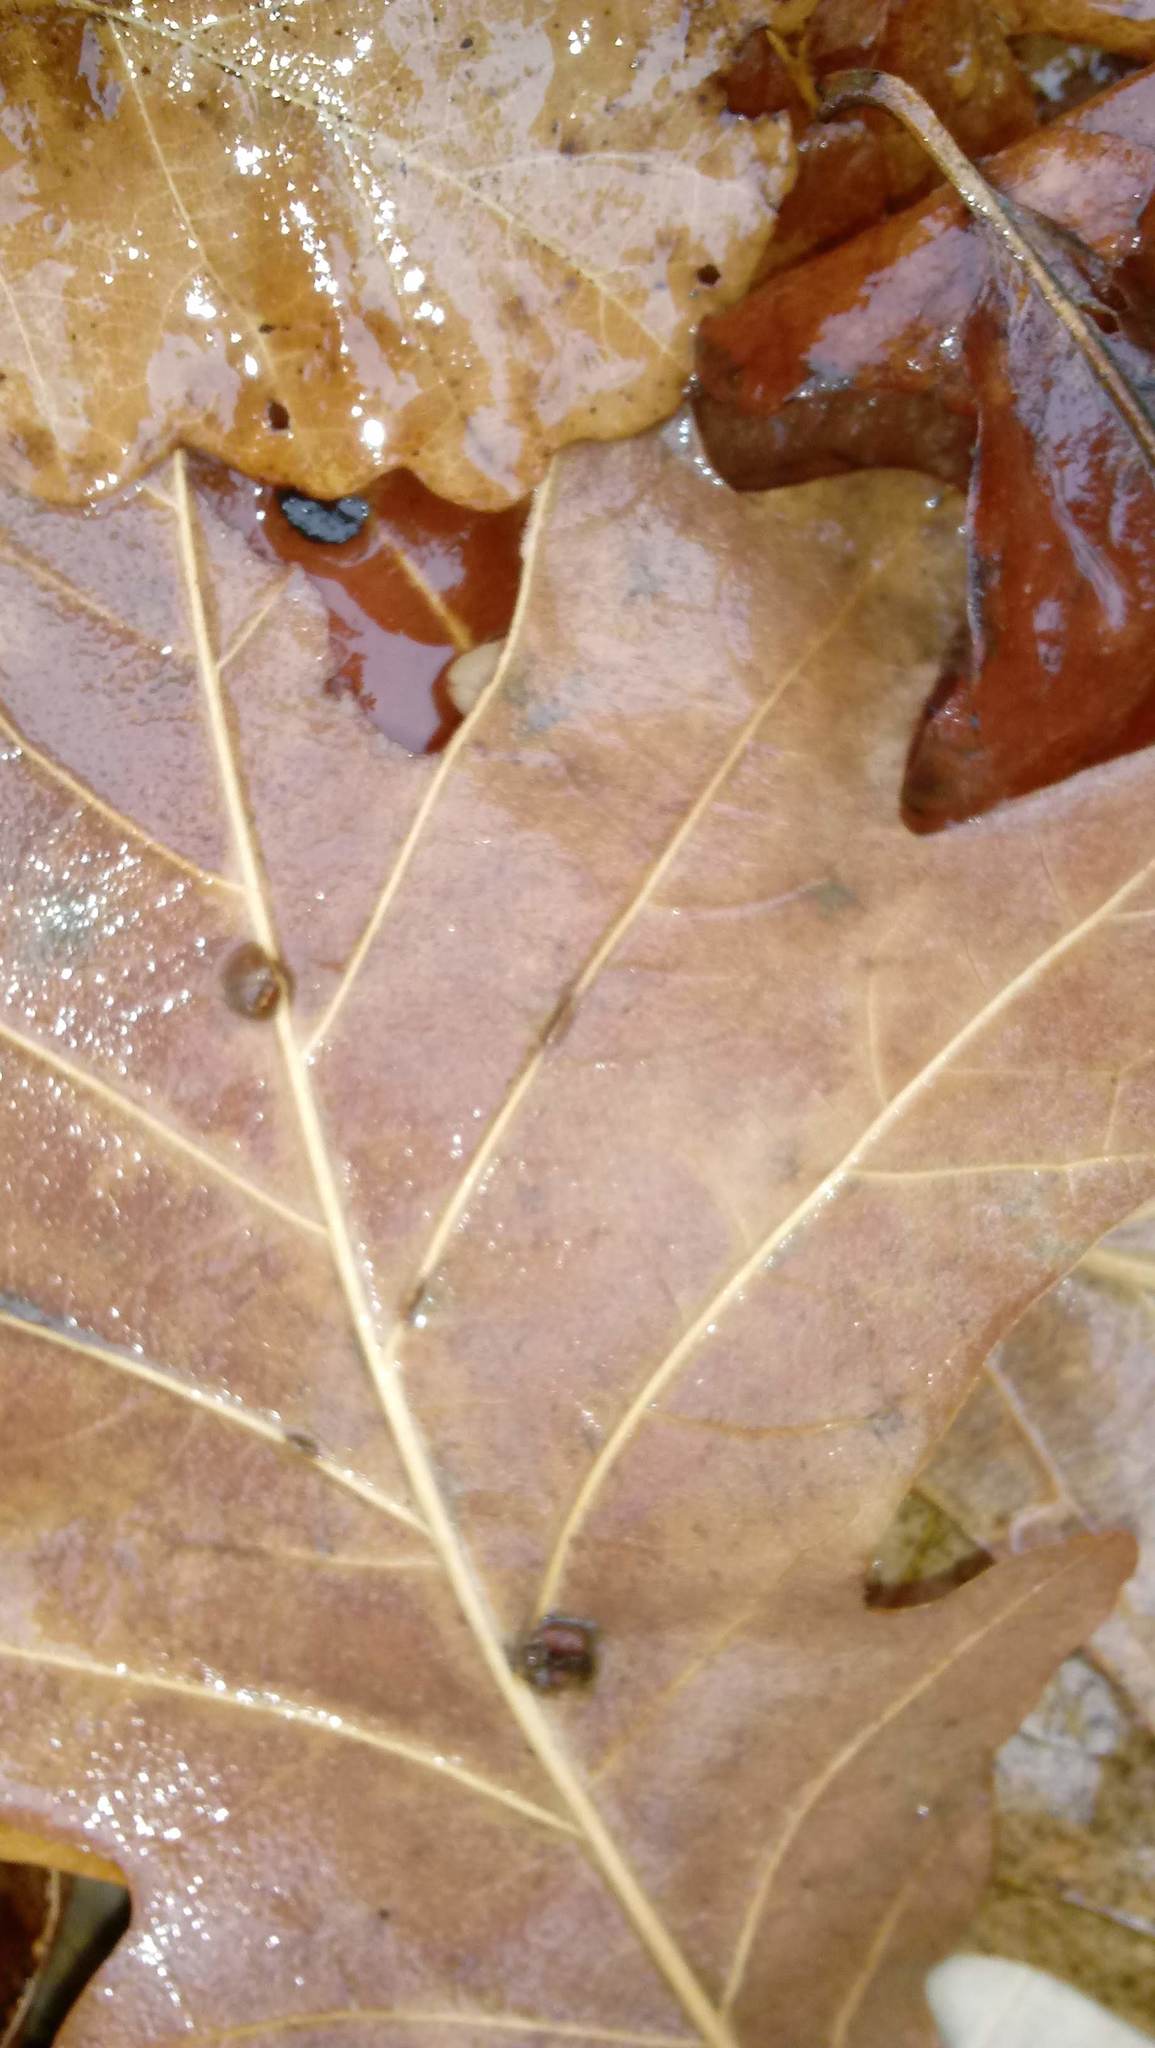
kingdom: Animalia
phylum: Arthropoda
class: Insecta
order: Hymenoptera
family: Cynipidae
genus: Andricus
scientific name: Andricus Druon ignotum
